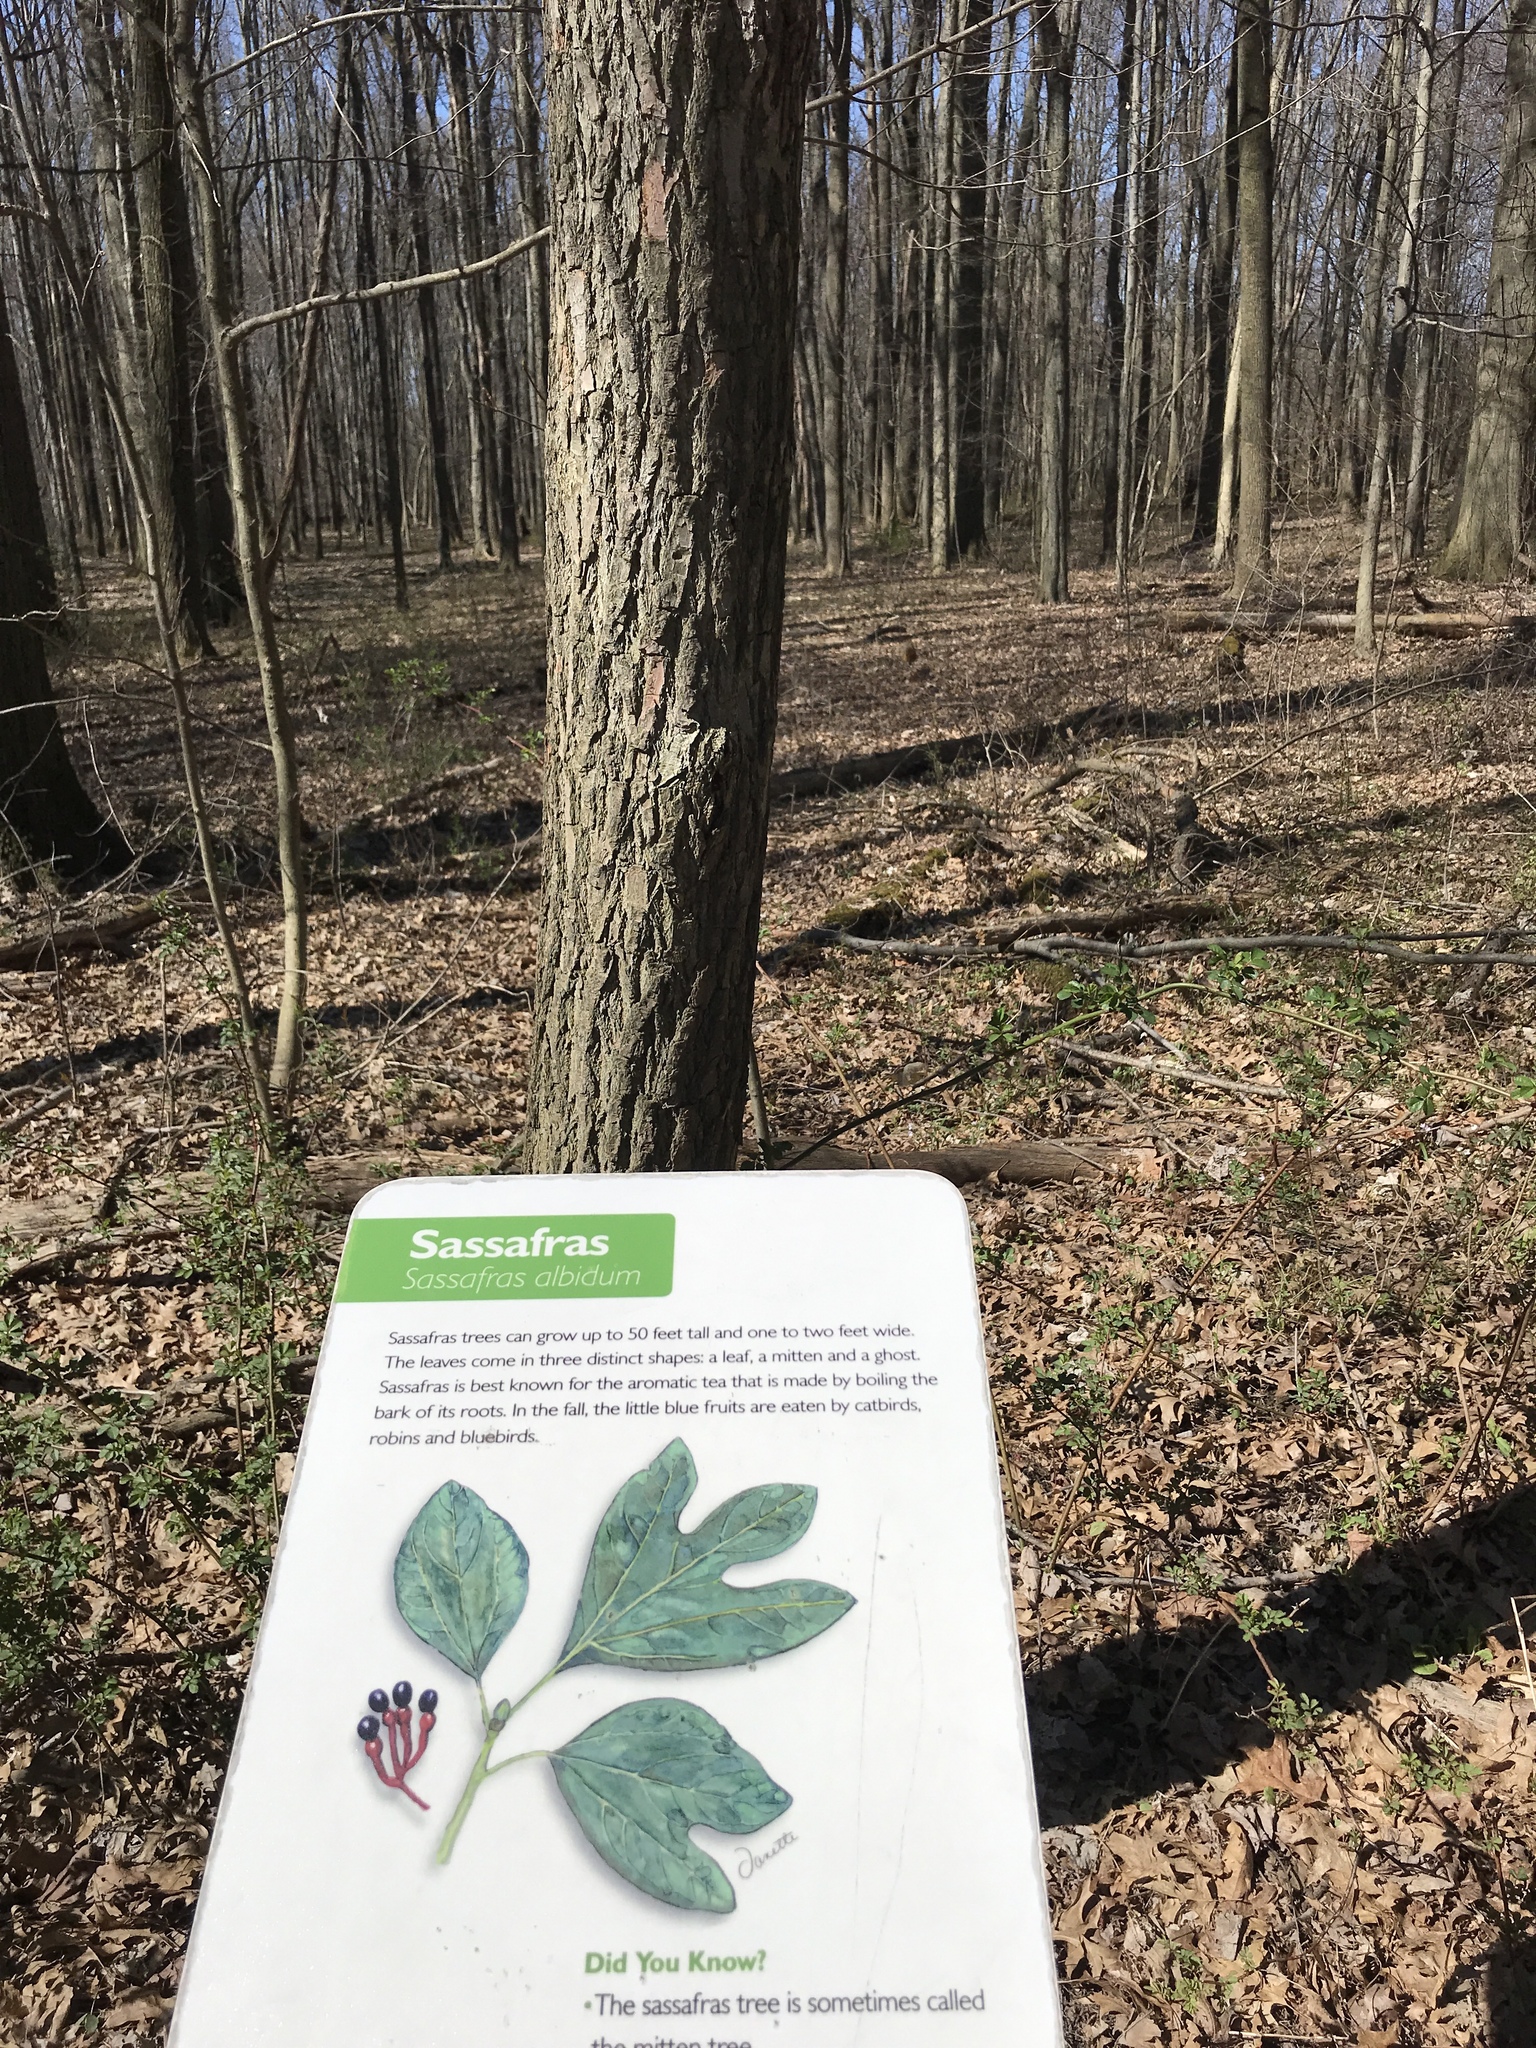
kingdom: Plantae
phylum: Tracheophyta
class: Magnoliopsida
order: Laurales
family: Lauraceae
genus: Sassafras
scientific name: Sassafras albidum
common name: Sassafras
